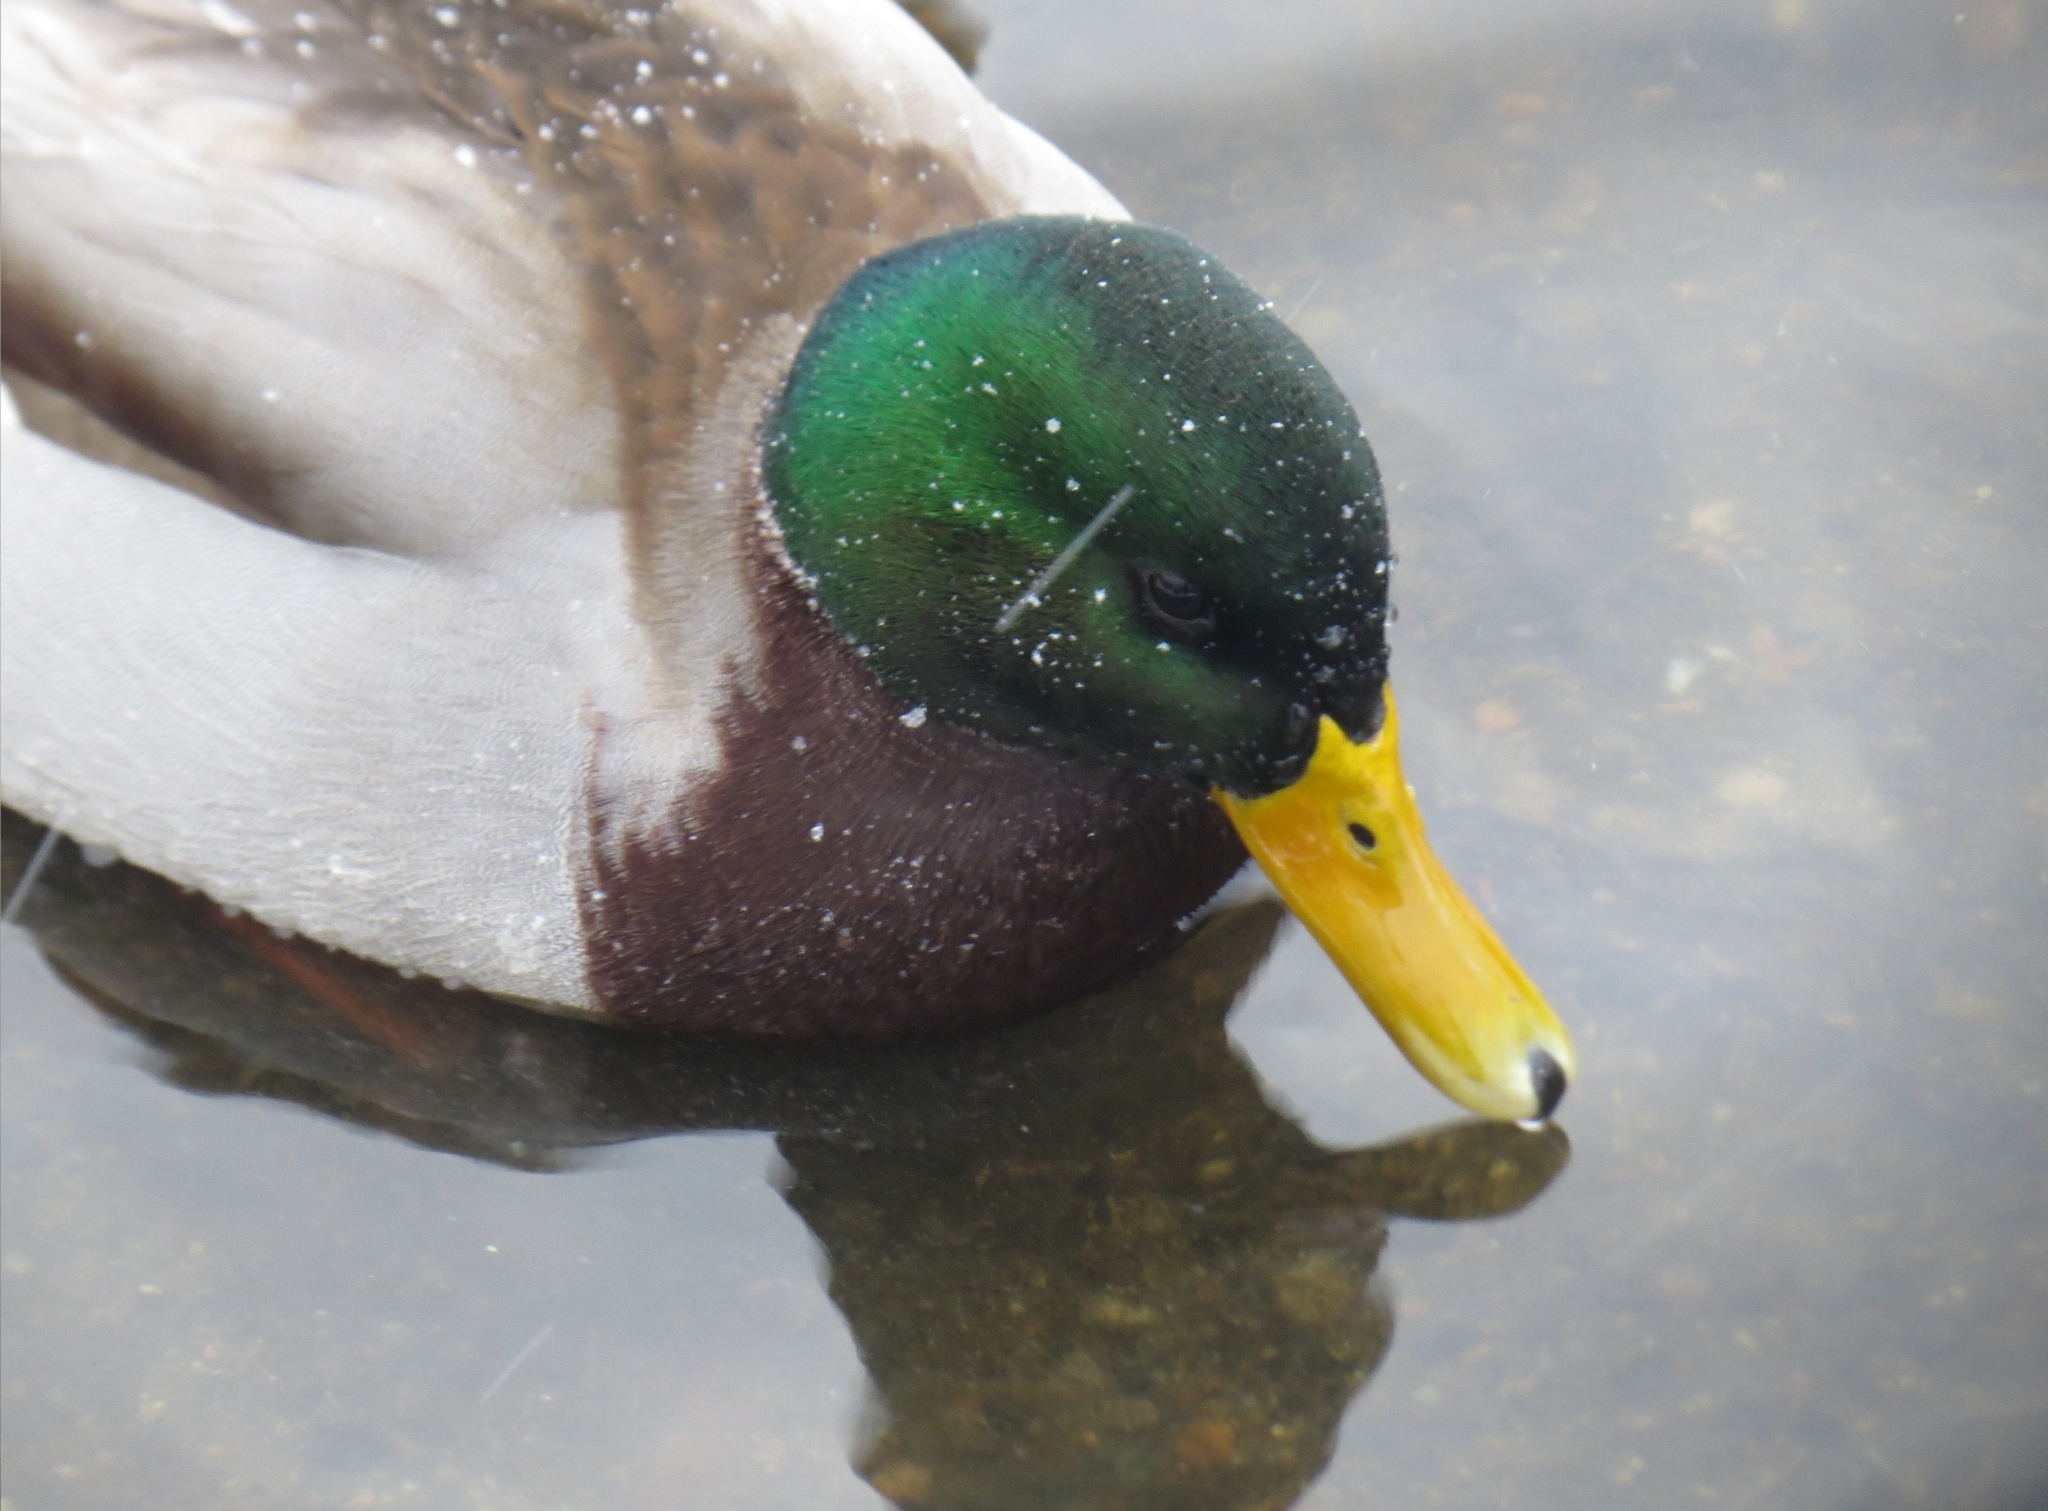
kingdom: Animalia
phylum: Chordata
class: Aves
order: Anseriformes
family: Anatidae
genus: Anas
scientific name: Anas platyrhynchos
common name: Mallard
